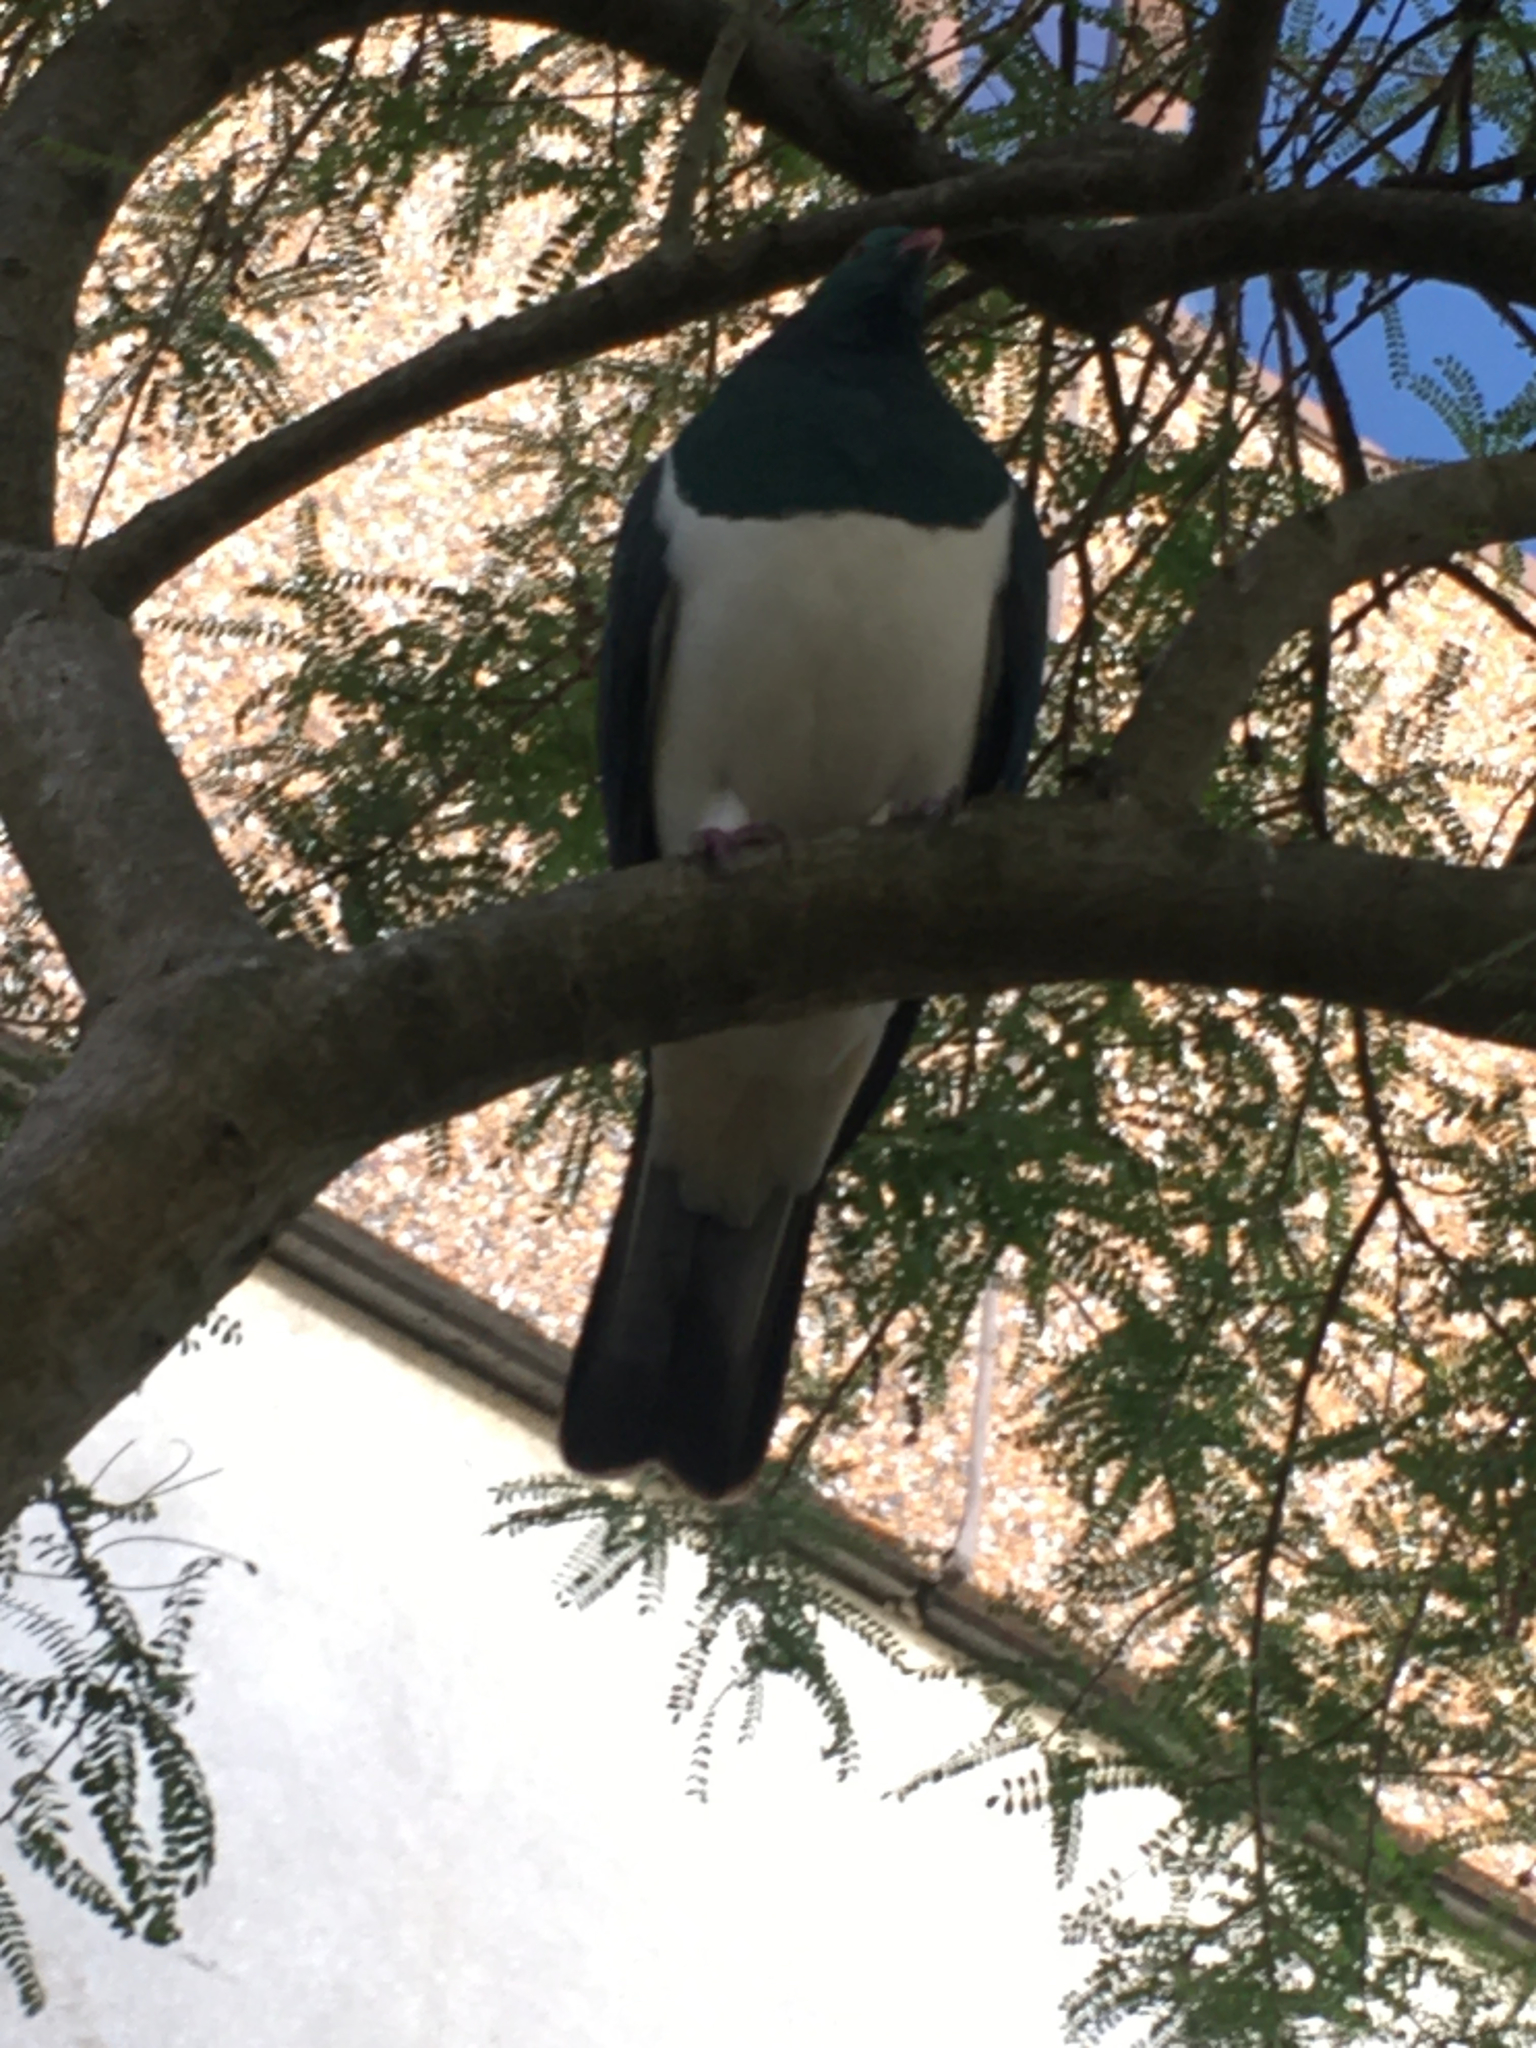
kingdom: Animalia
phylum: Chordata
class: Aves
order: Columbiformes
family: Columbidae
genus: Hemiphaga
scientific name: Hemiphaga novaeseelandiae
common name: New zealand pigeon
